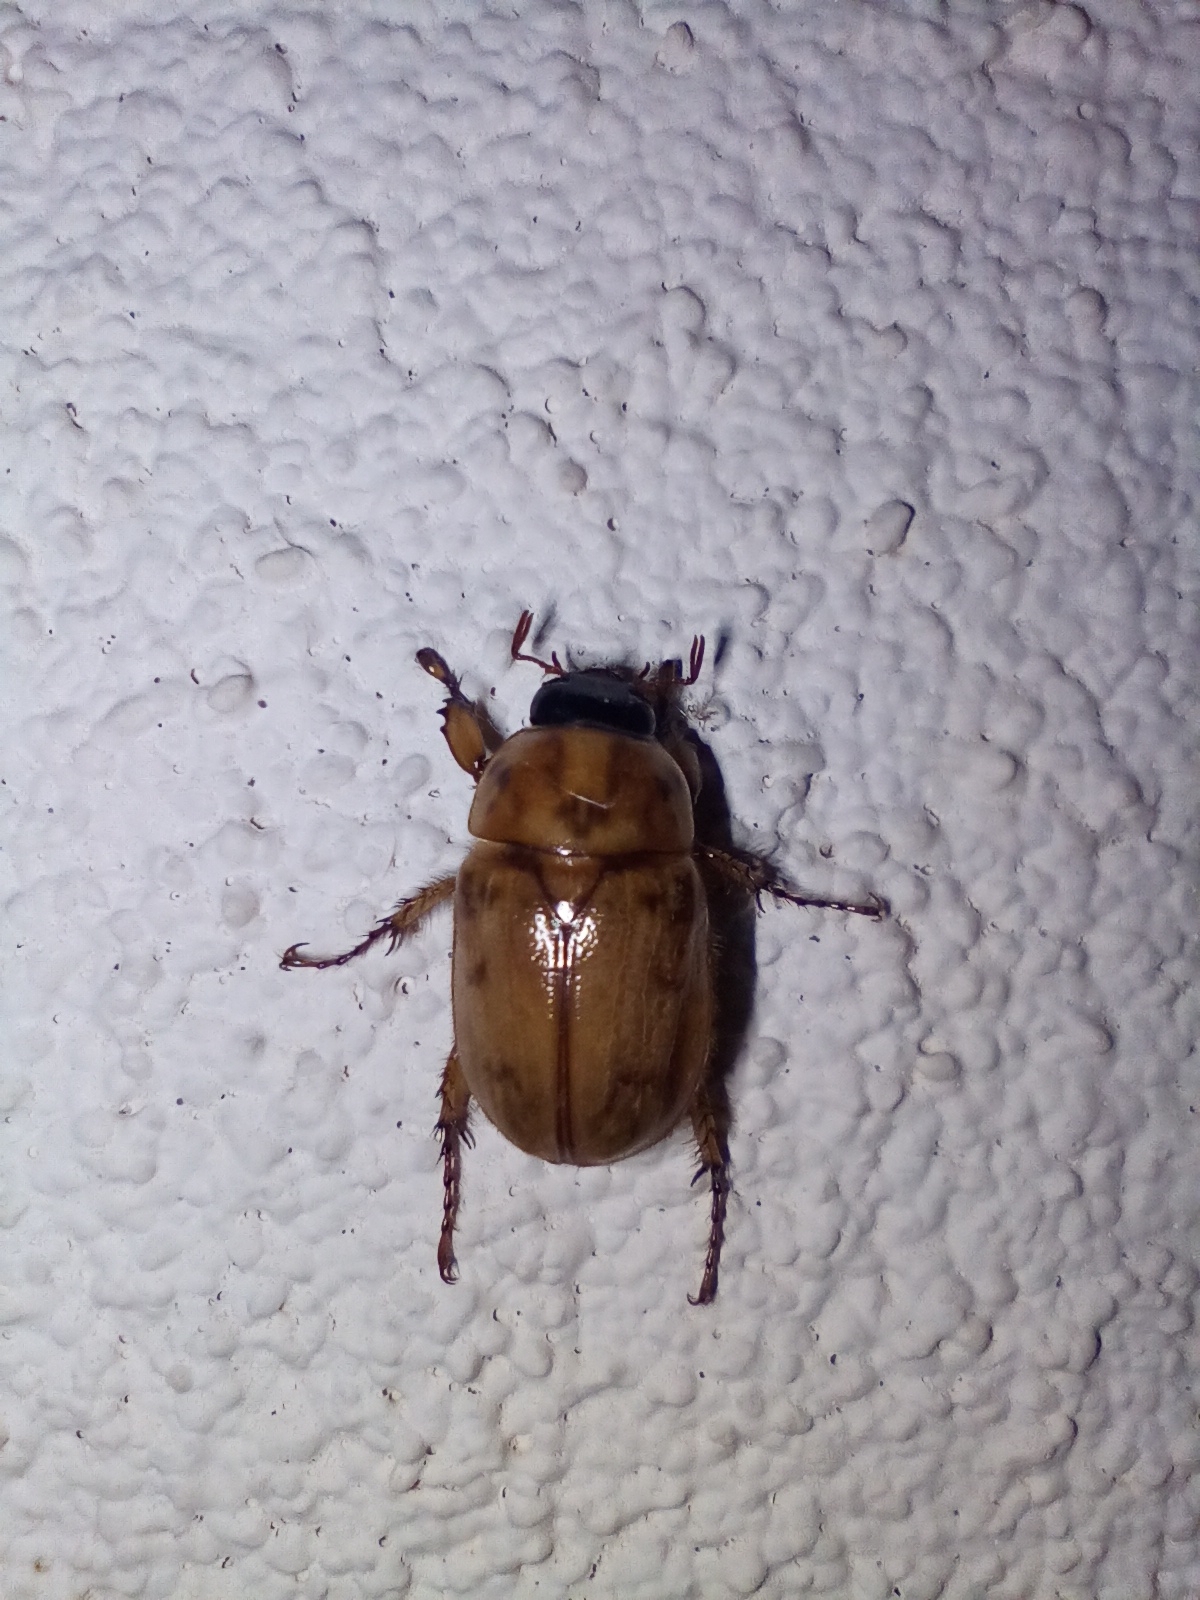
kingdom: Animalia
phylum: Arthropoda
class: Insecta
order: Coleoptera
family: Scarabaeidae
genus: Cyclocephala
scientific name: Cyclocephala signaticollis
